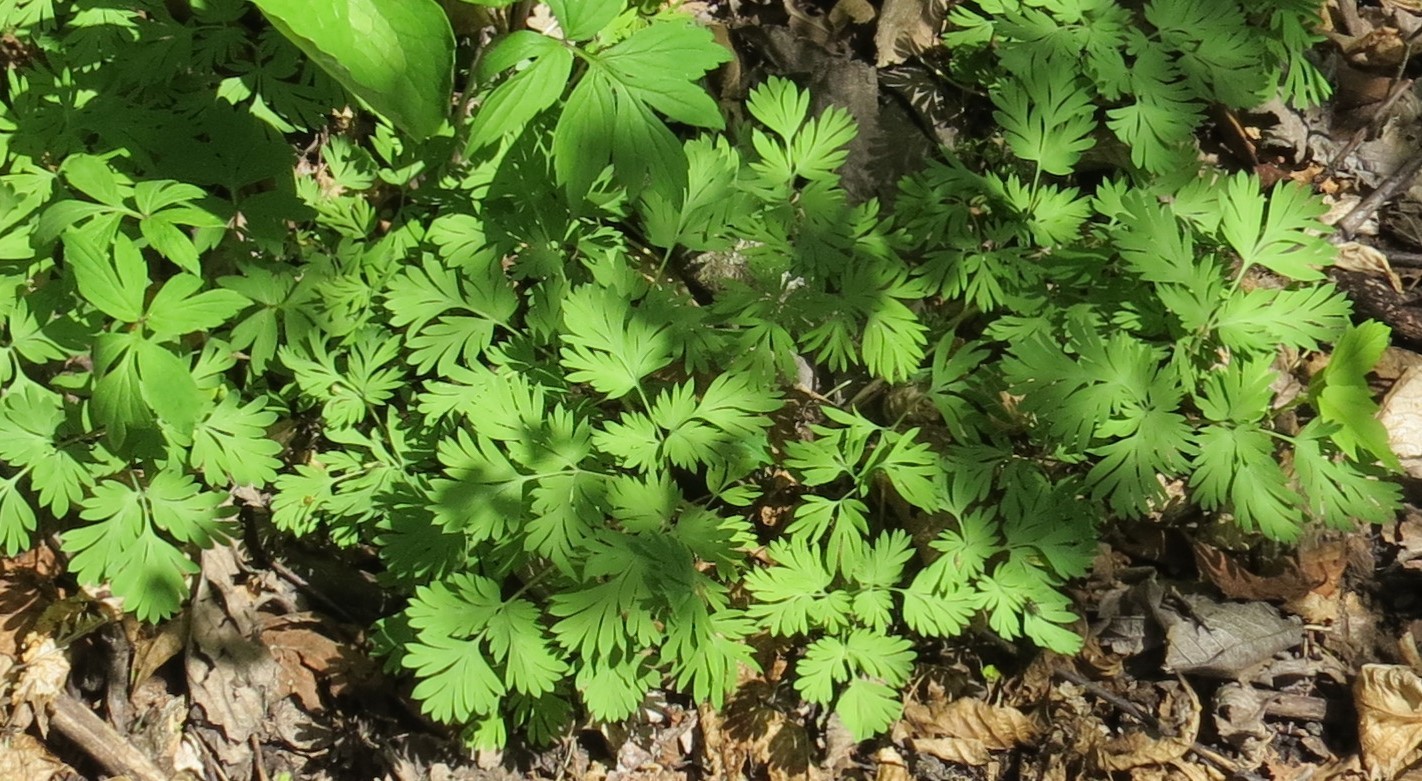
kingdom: Plantae
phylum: Tracheophyta
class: Magnoliopsida
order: Ranunculales
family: Papaveraceae
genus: Dicentra
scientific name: Dicentra cucullaria
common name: Dutchman's breeches
